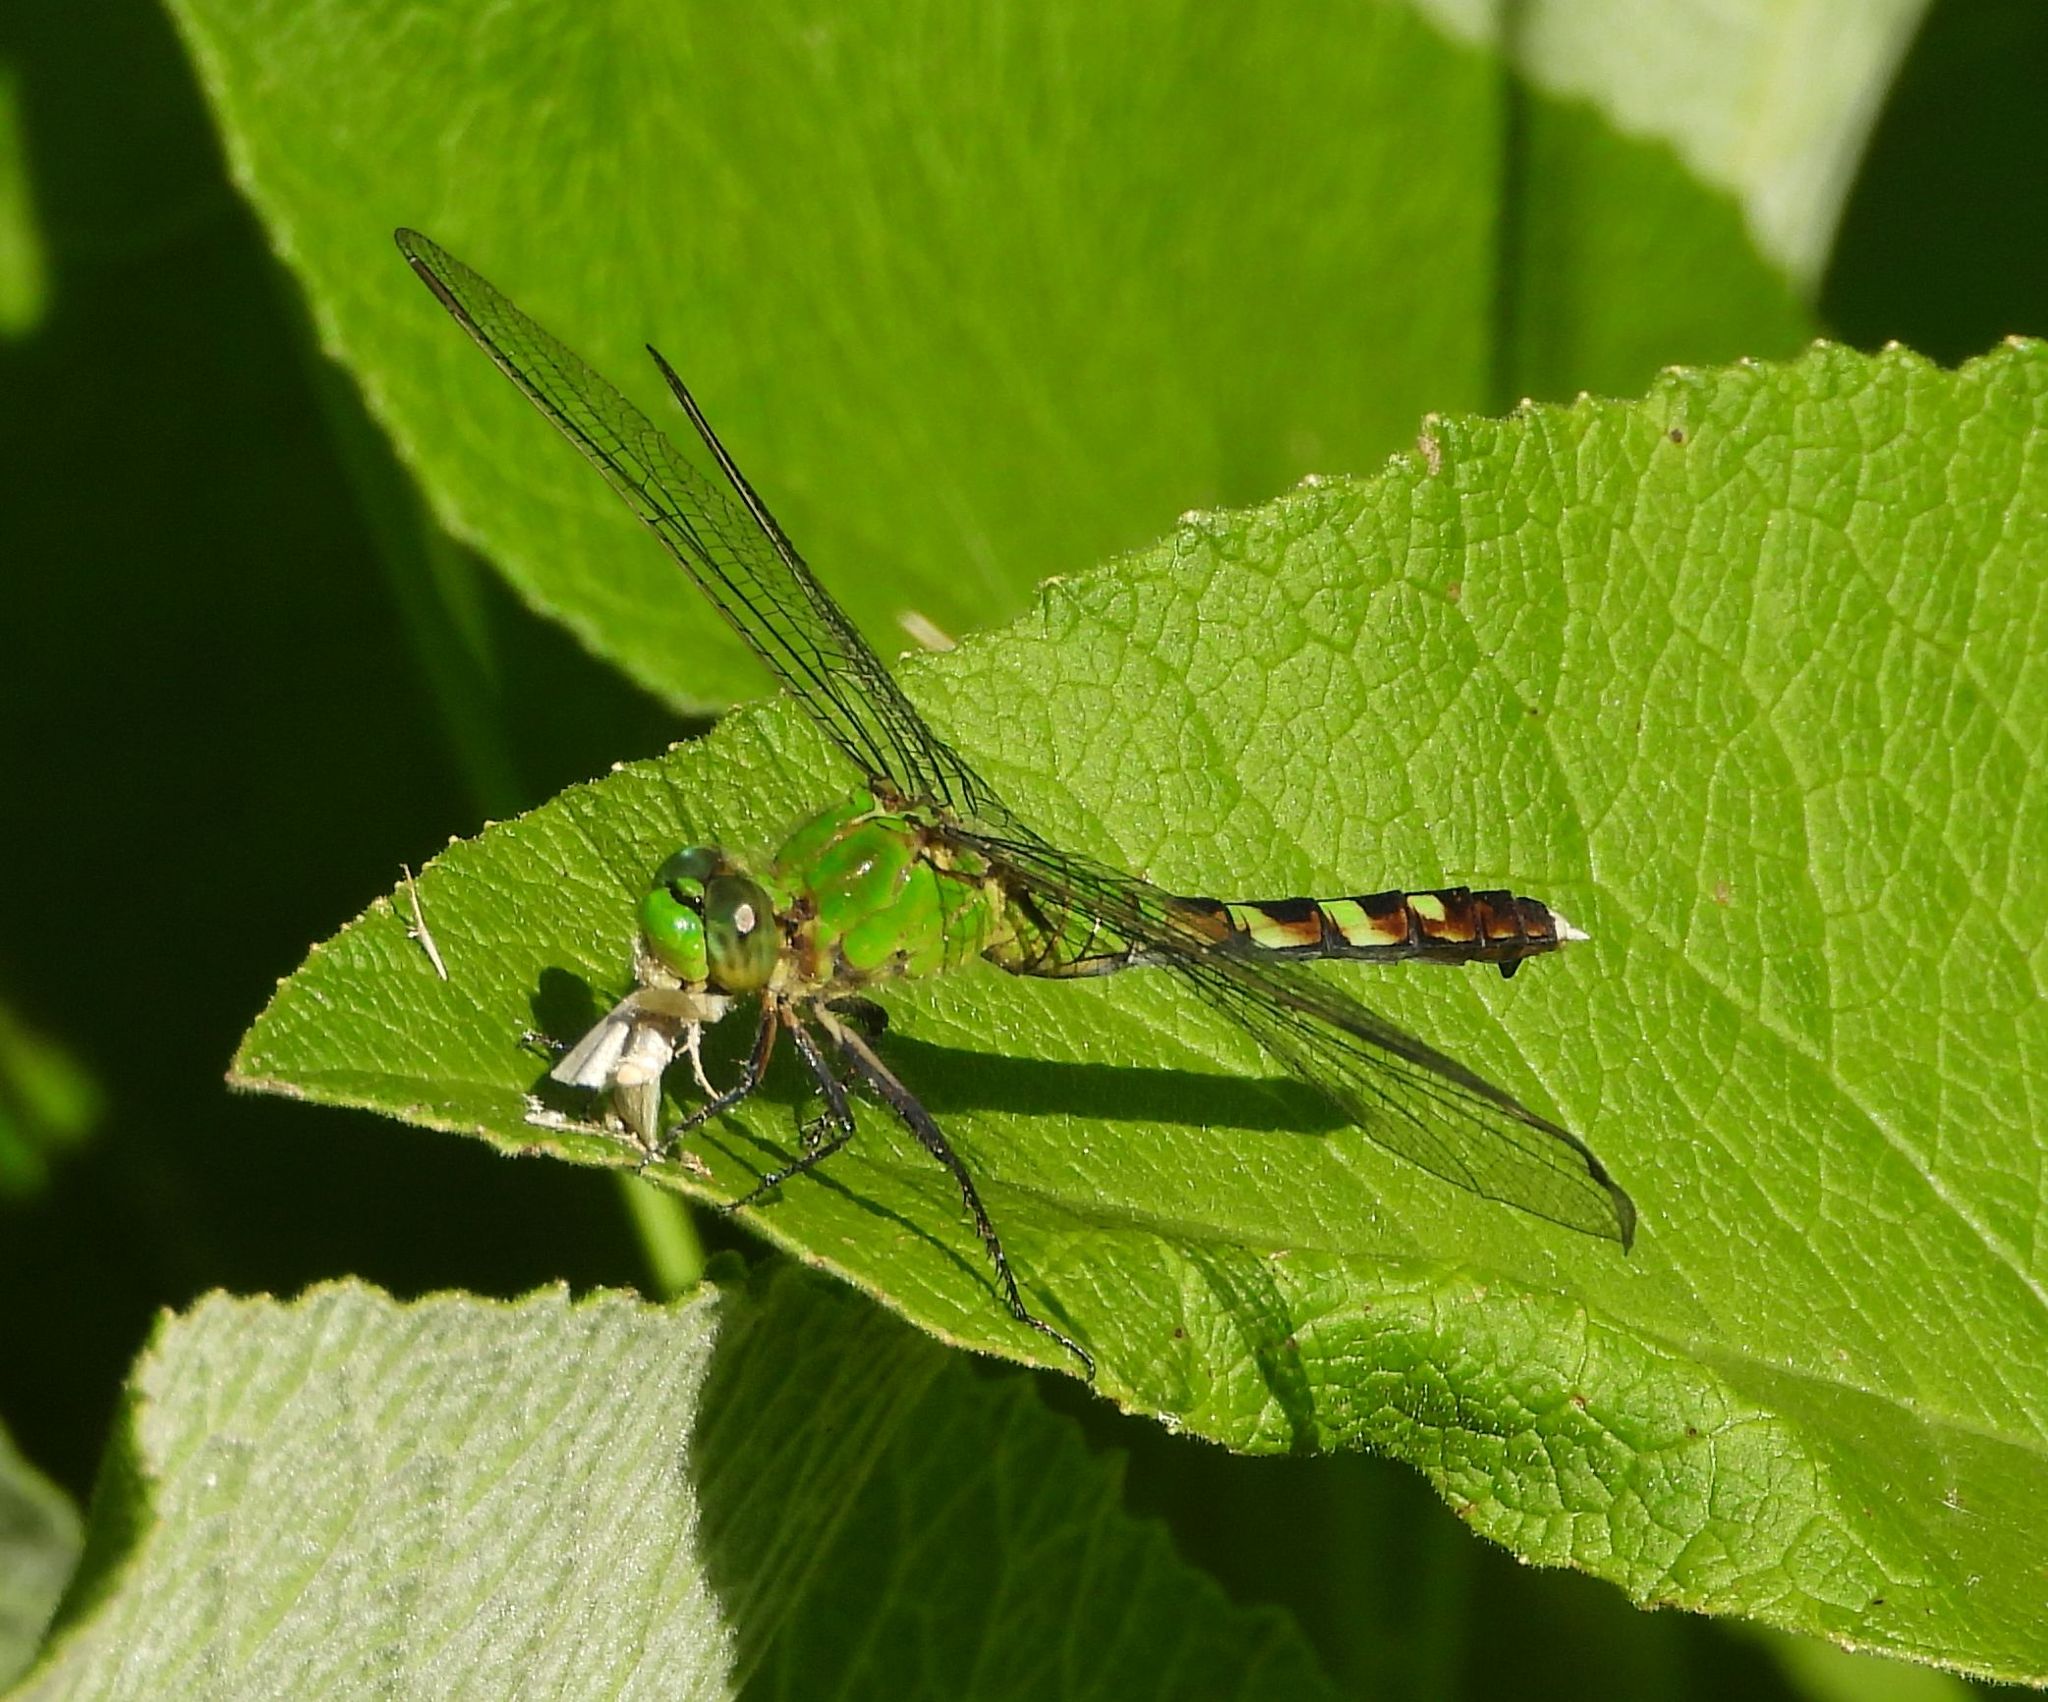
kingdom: Animalia
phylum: Arthropoda
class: Insecta
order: Odonata
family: Libellulidae
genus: Erythemis
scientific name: Erythemis simplicicollis
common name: Eastern pondhawk
